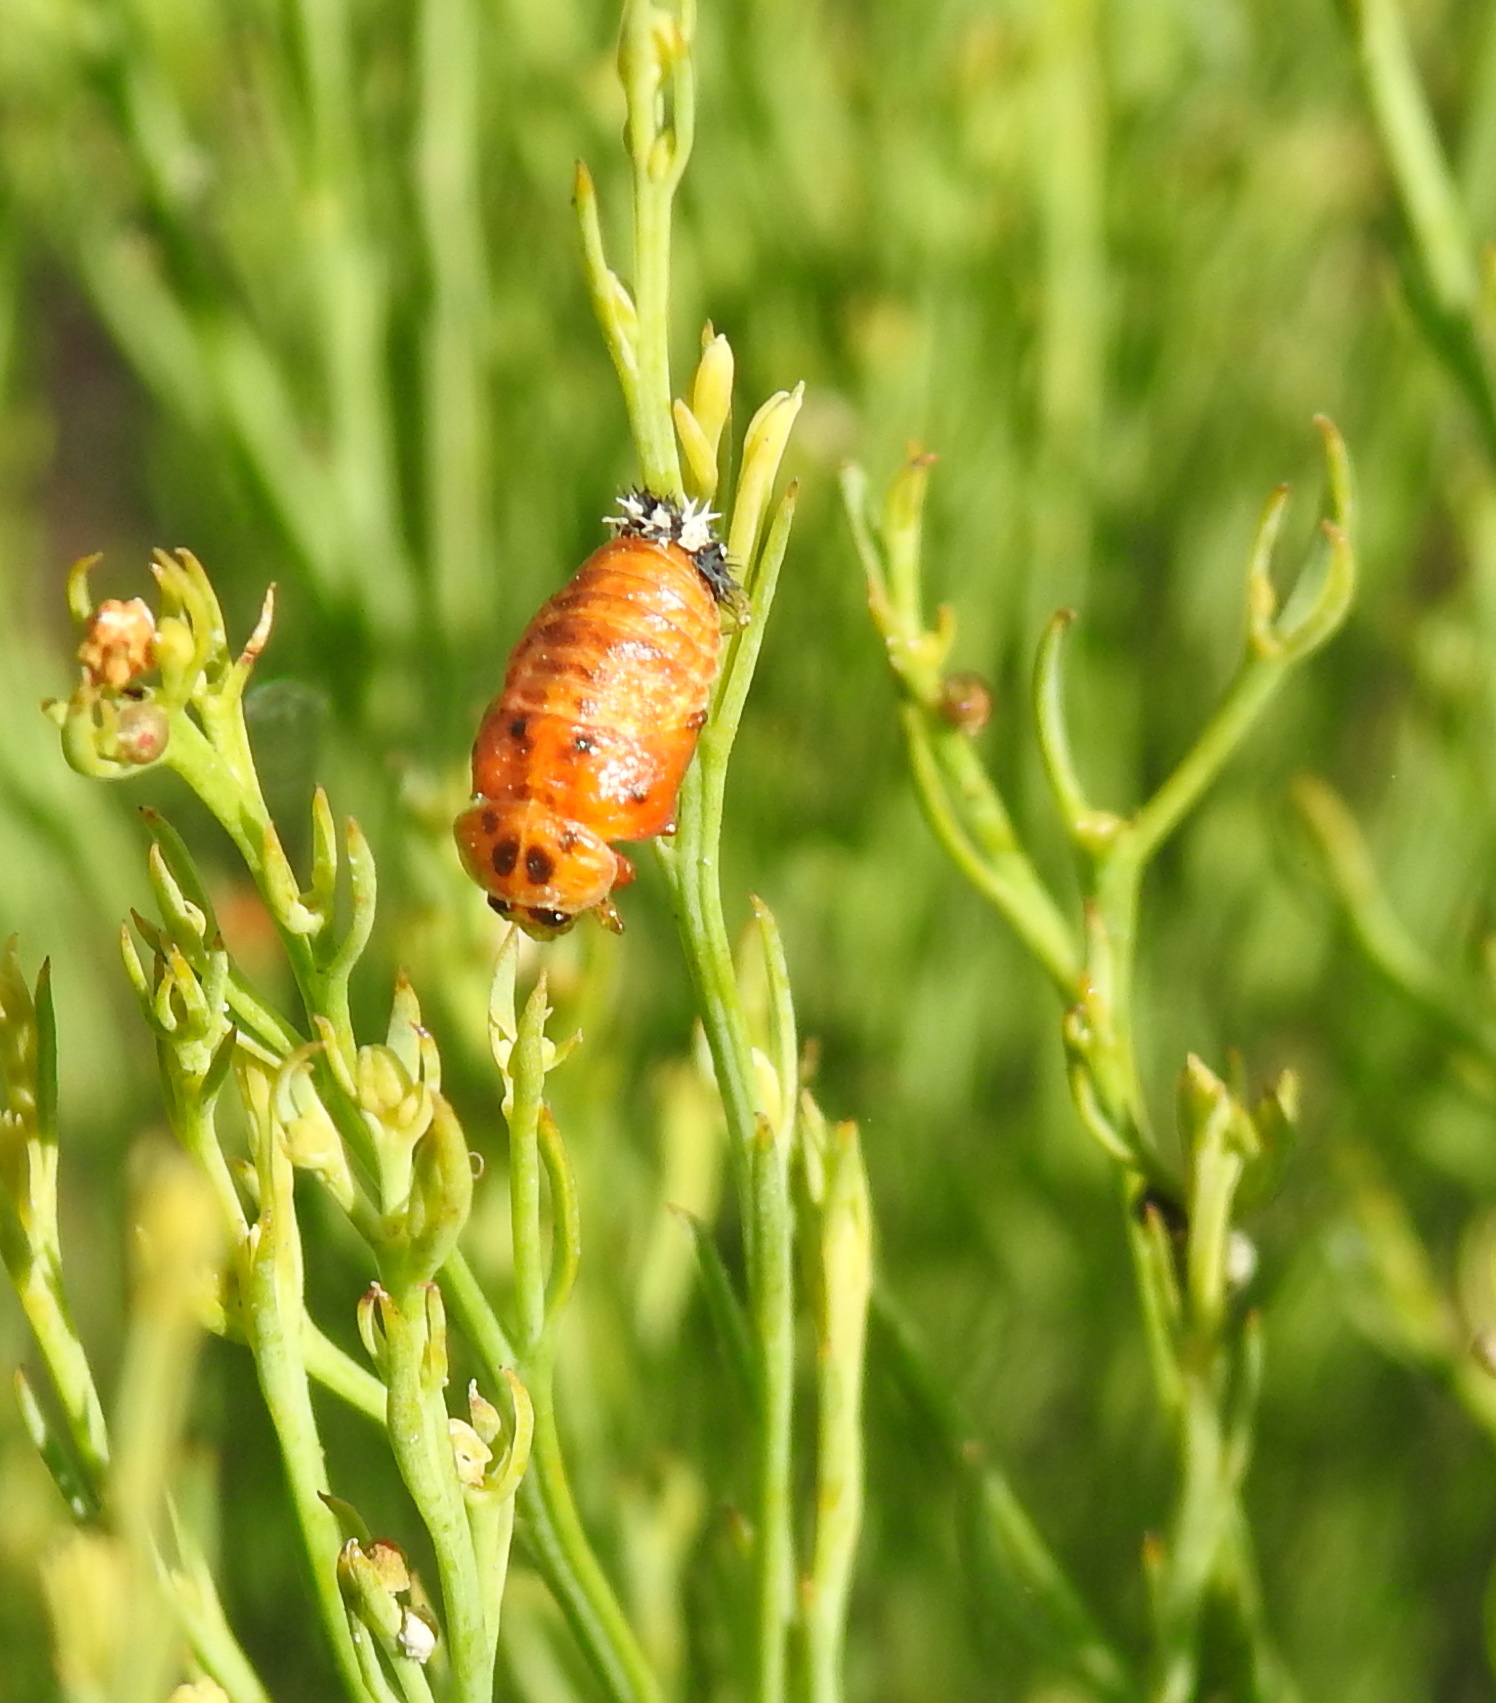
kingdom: Animalia
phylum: Arthropoda
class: Insecta
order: Coleoptera
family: Coccinellidae
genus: Harmonia
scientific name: Harmonia axyridis
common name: Harlequin ladybird
